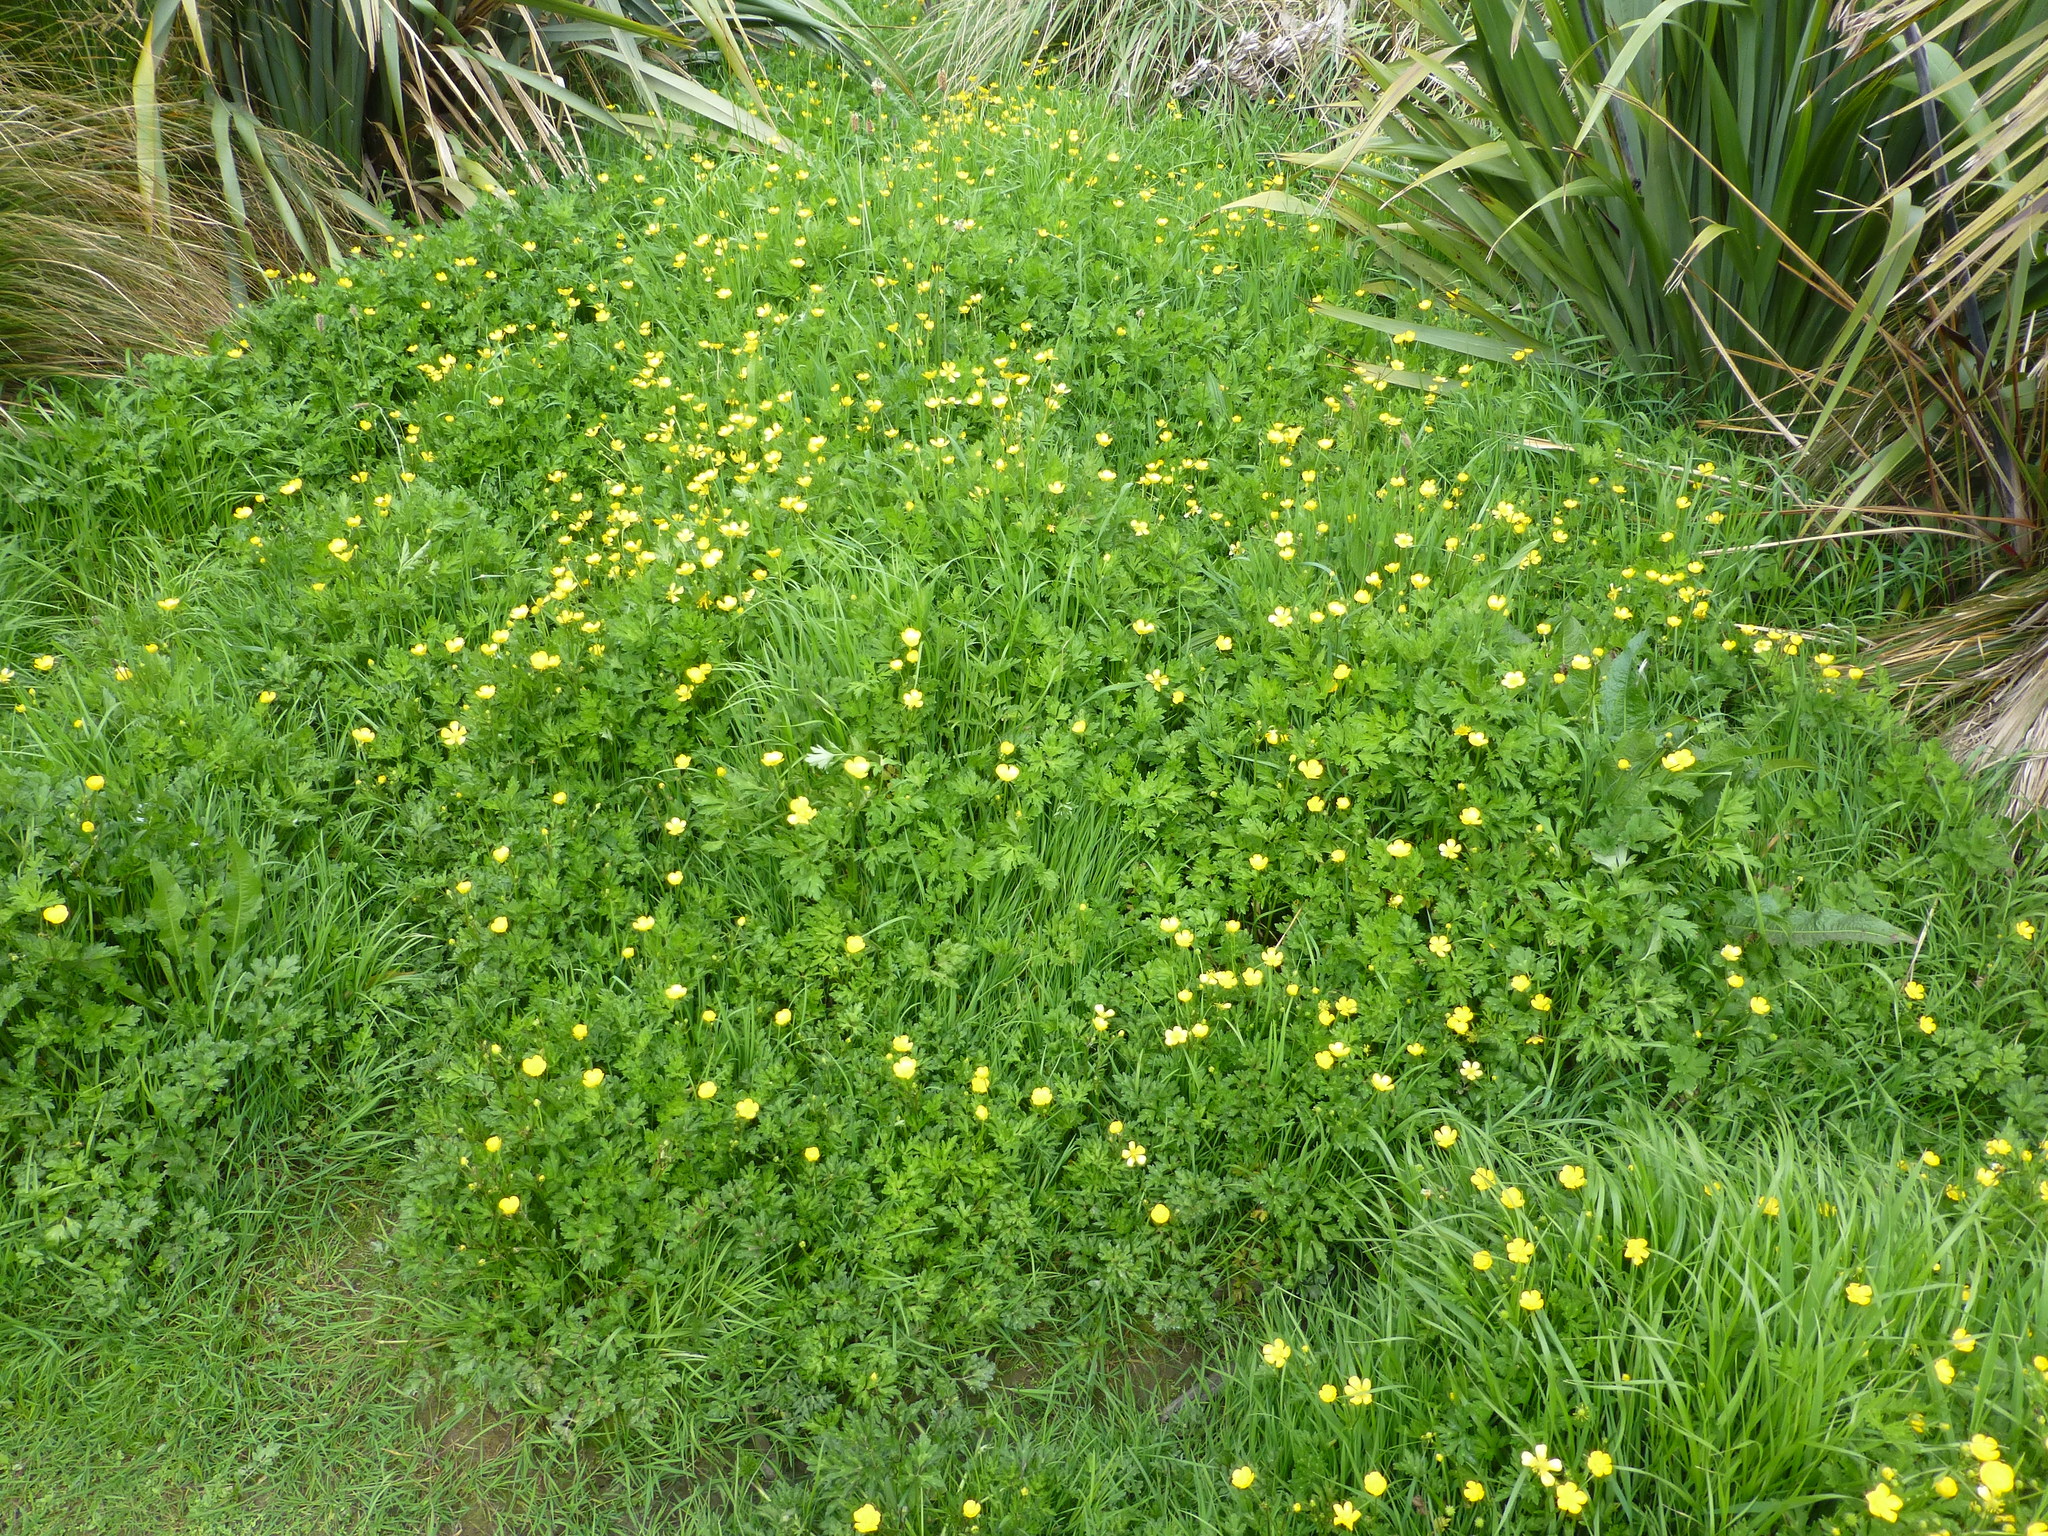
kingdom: Plantae
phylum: Tracheophyta
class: Magnoliopsida
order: Ranunculales
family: Ranunculaceae
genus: Ranunculus
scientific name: Ranunculus repens
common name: Creeping buttercup
